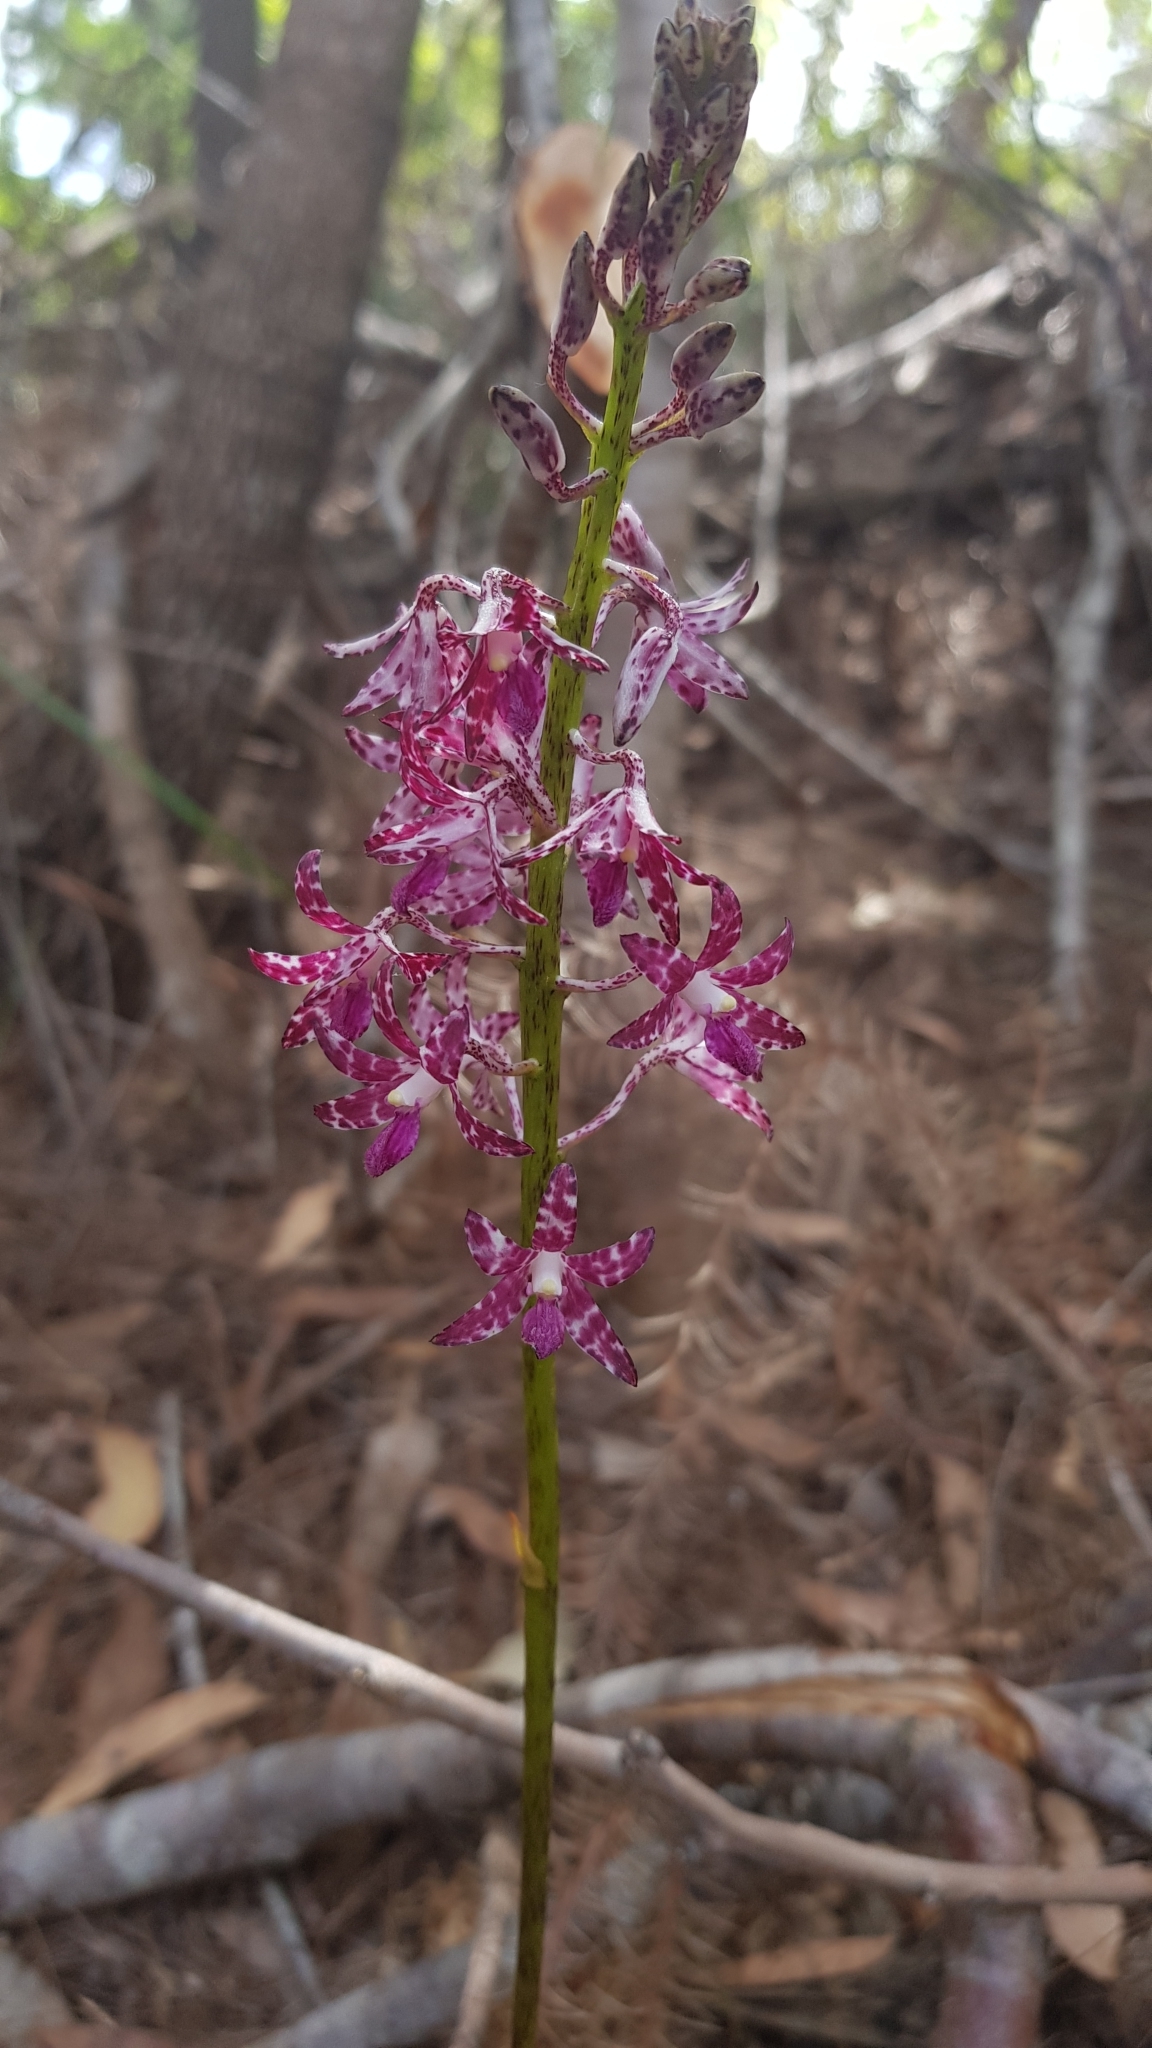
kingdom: Plantae
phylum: Tracheophyta
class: Liliopsida
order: Asparagales
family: Orchidaceae
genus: Dipodium
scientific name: Dipodium variegatum
